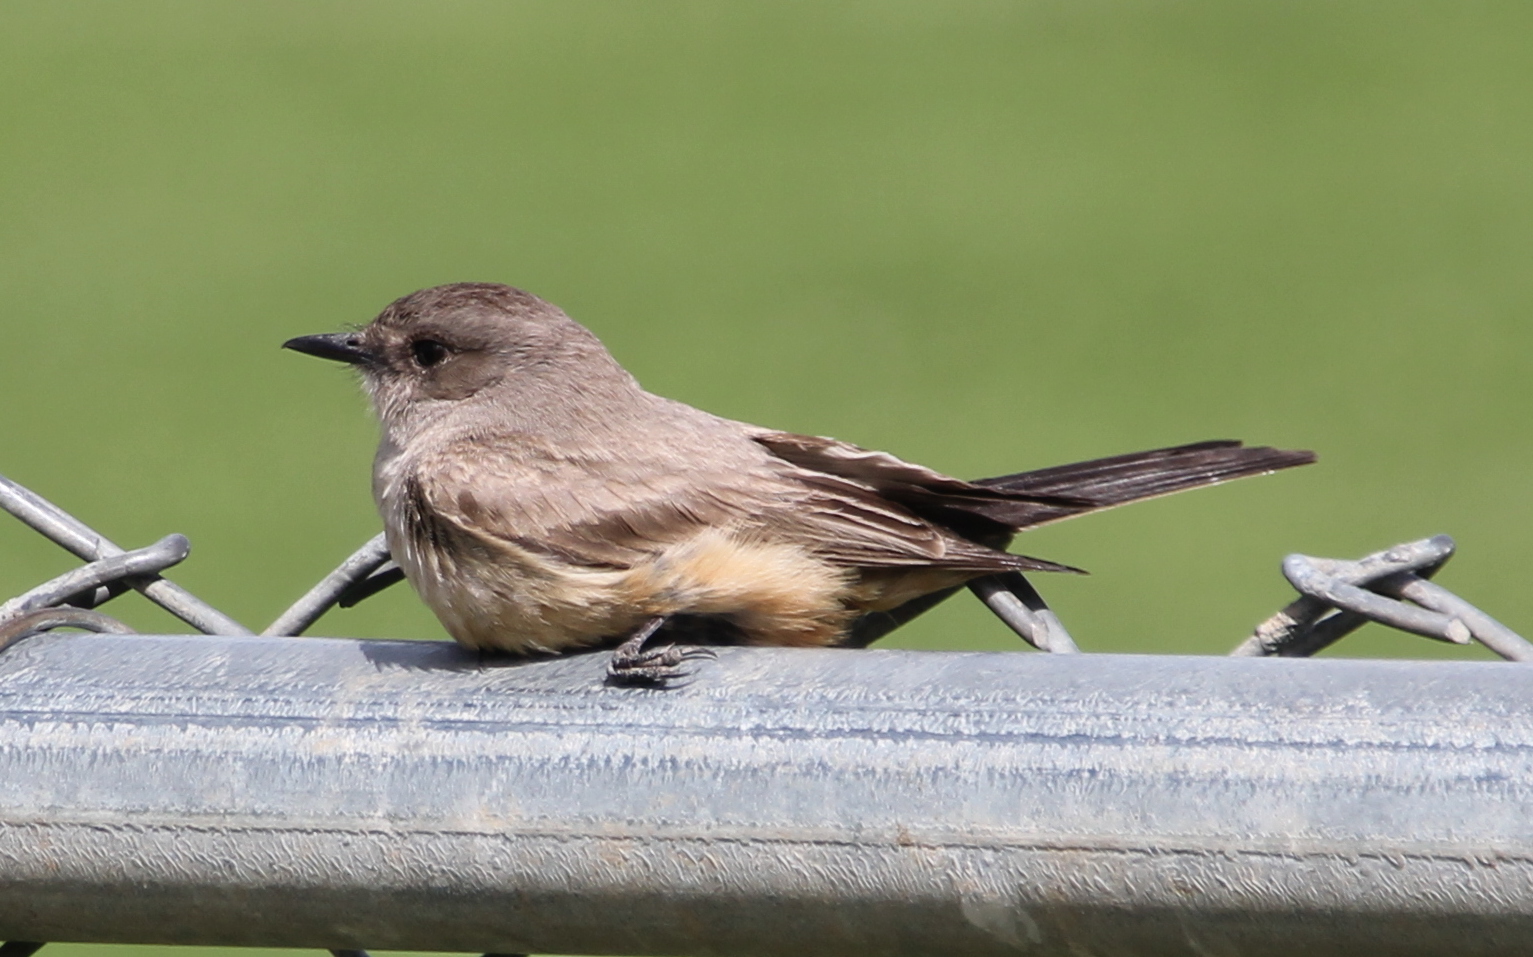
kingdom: Animalia
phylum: Chordata
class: Aves
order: Passeriformes
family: Tyrannidae
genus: Sayornis
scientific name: Sayornis saya
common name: Say's phoebe
